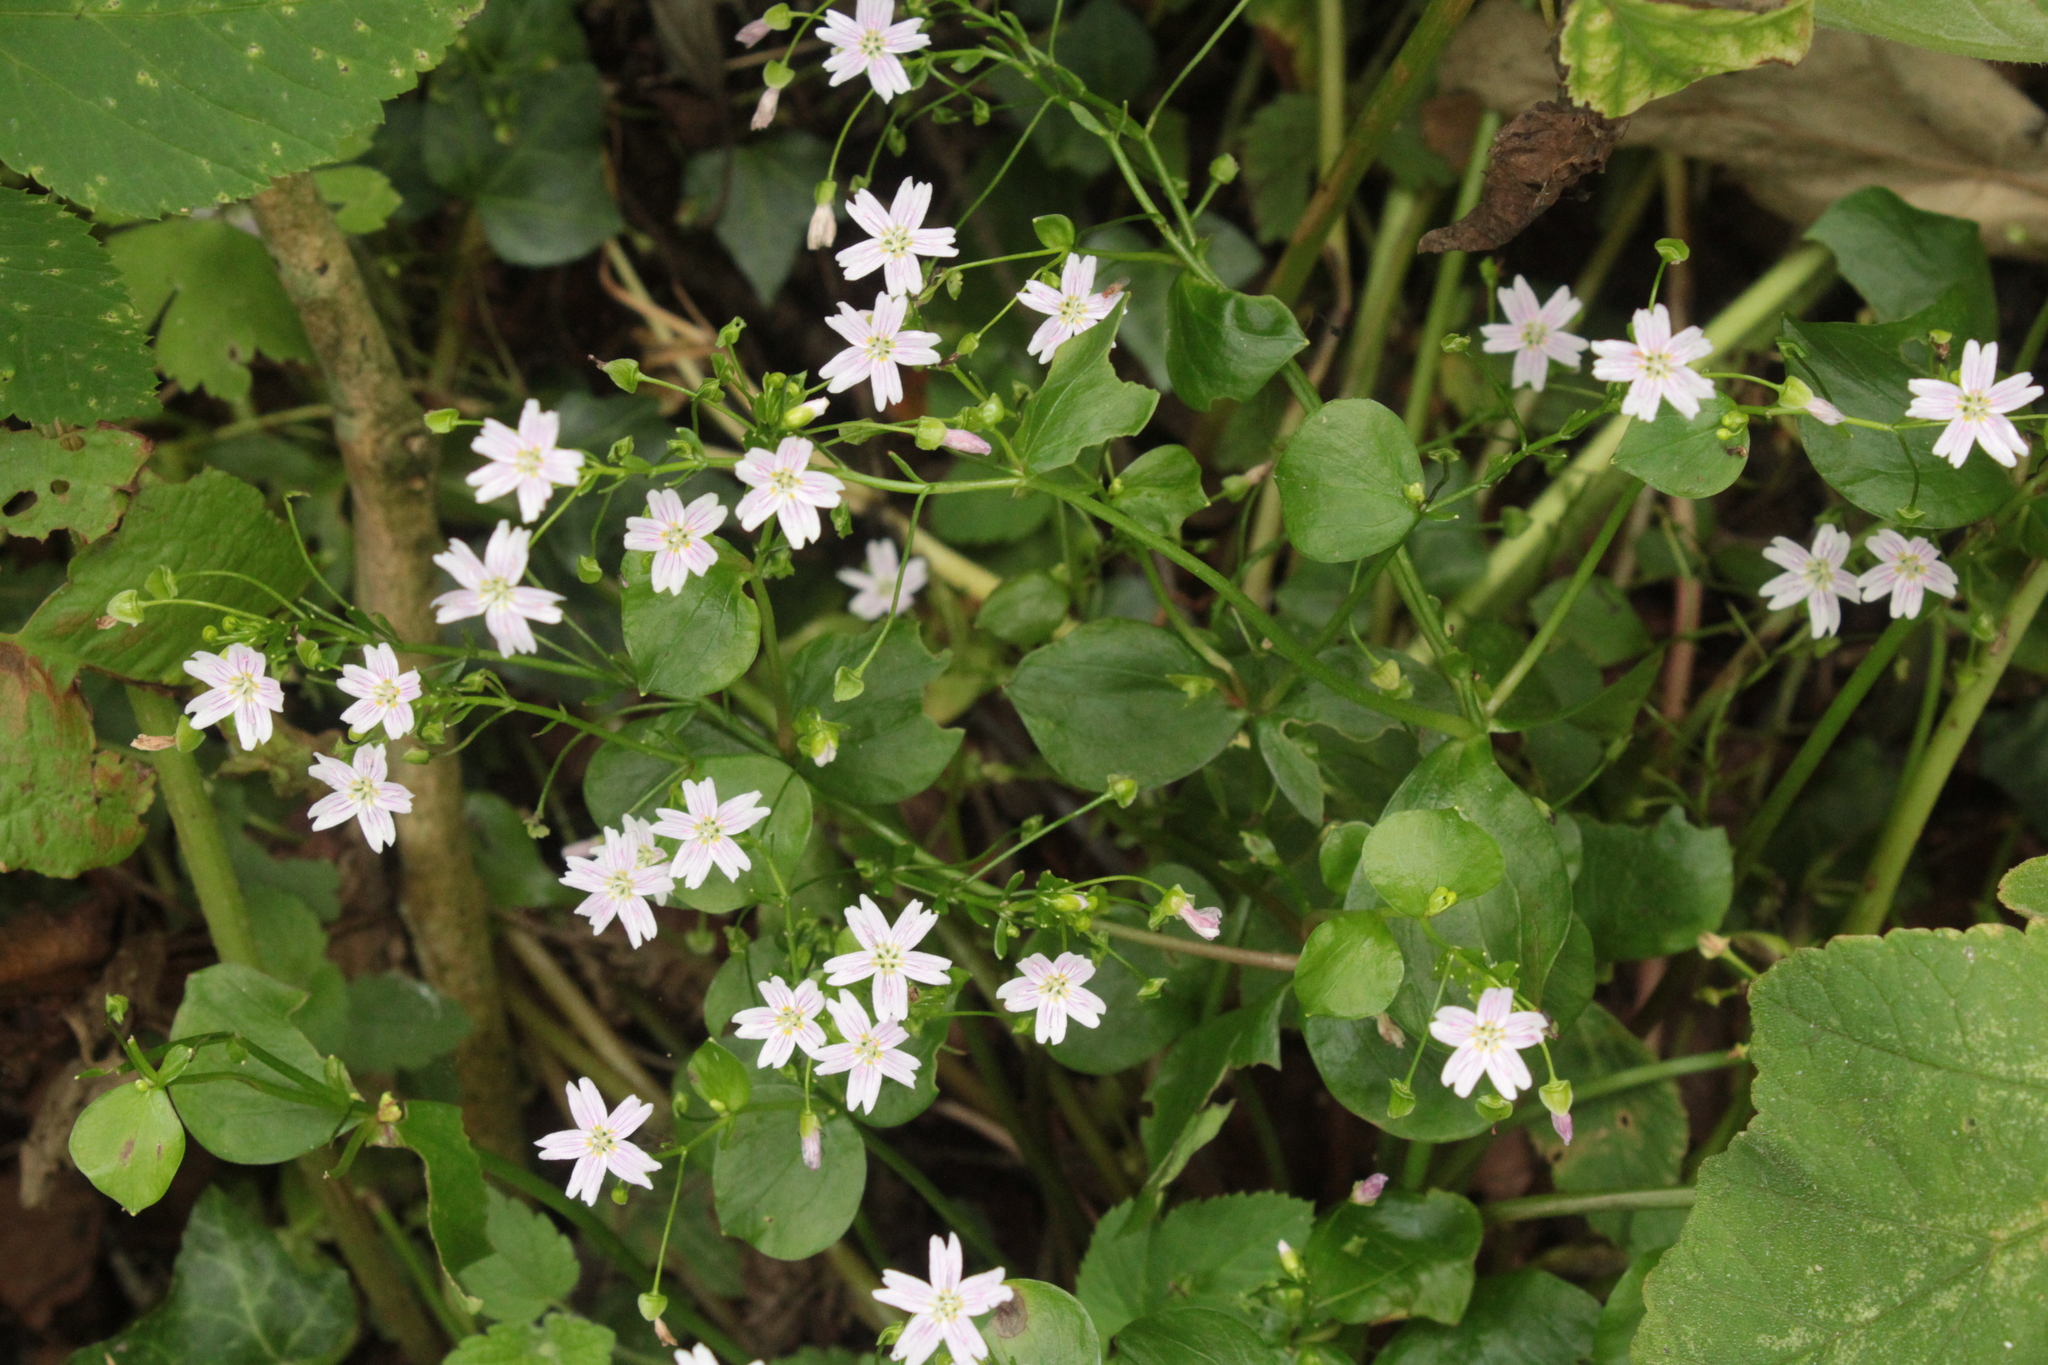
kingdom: Plantae
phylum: Tracheophyta
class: Magnoliopsida
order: Caryophyllales
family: Montiaceae
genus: Claytonia
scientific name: Claytonia sibirica
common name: Pink purslane
